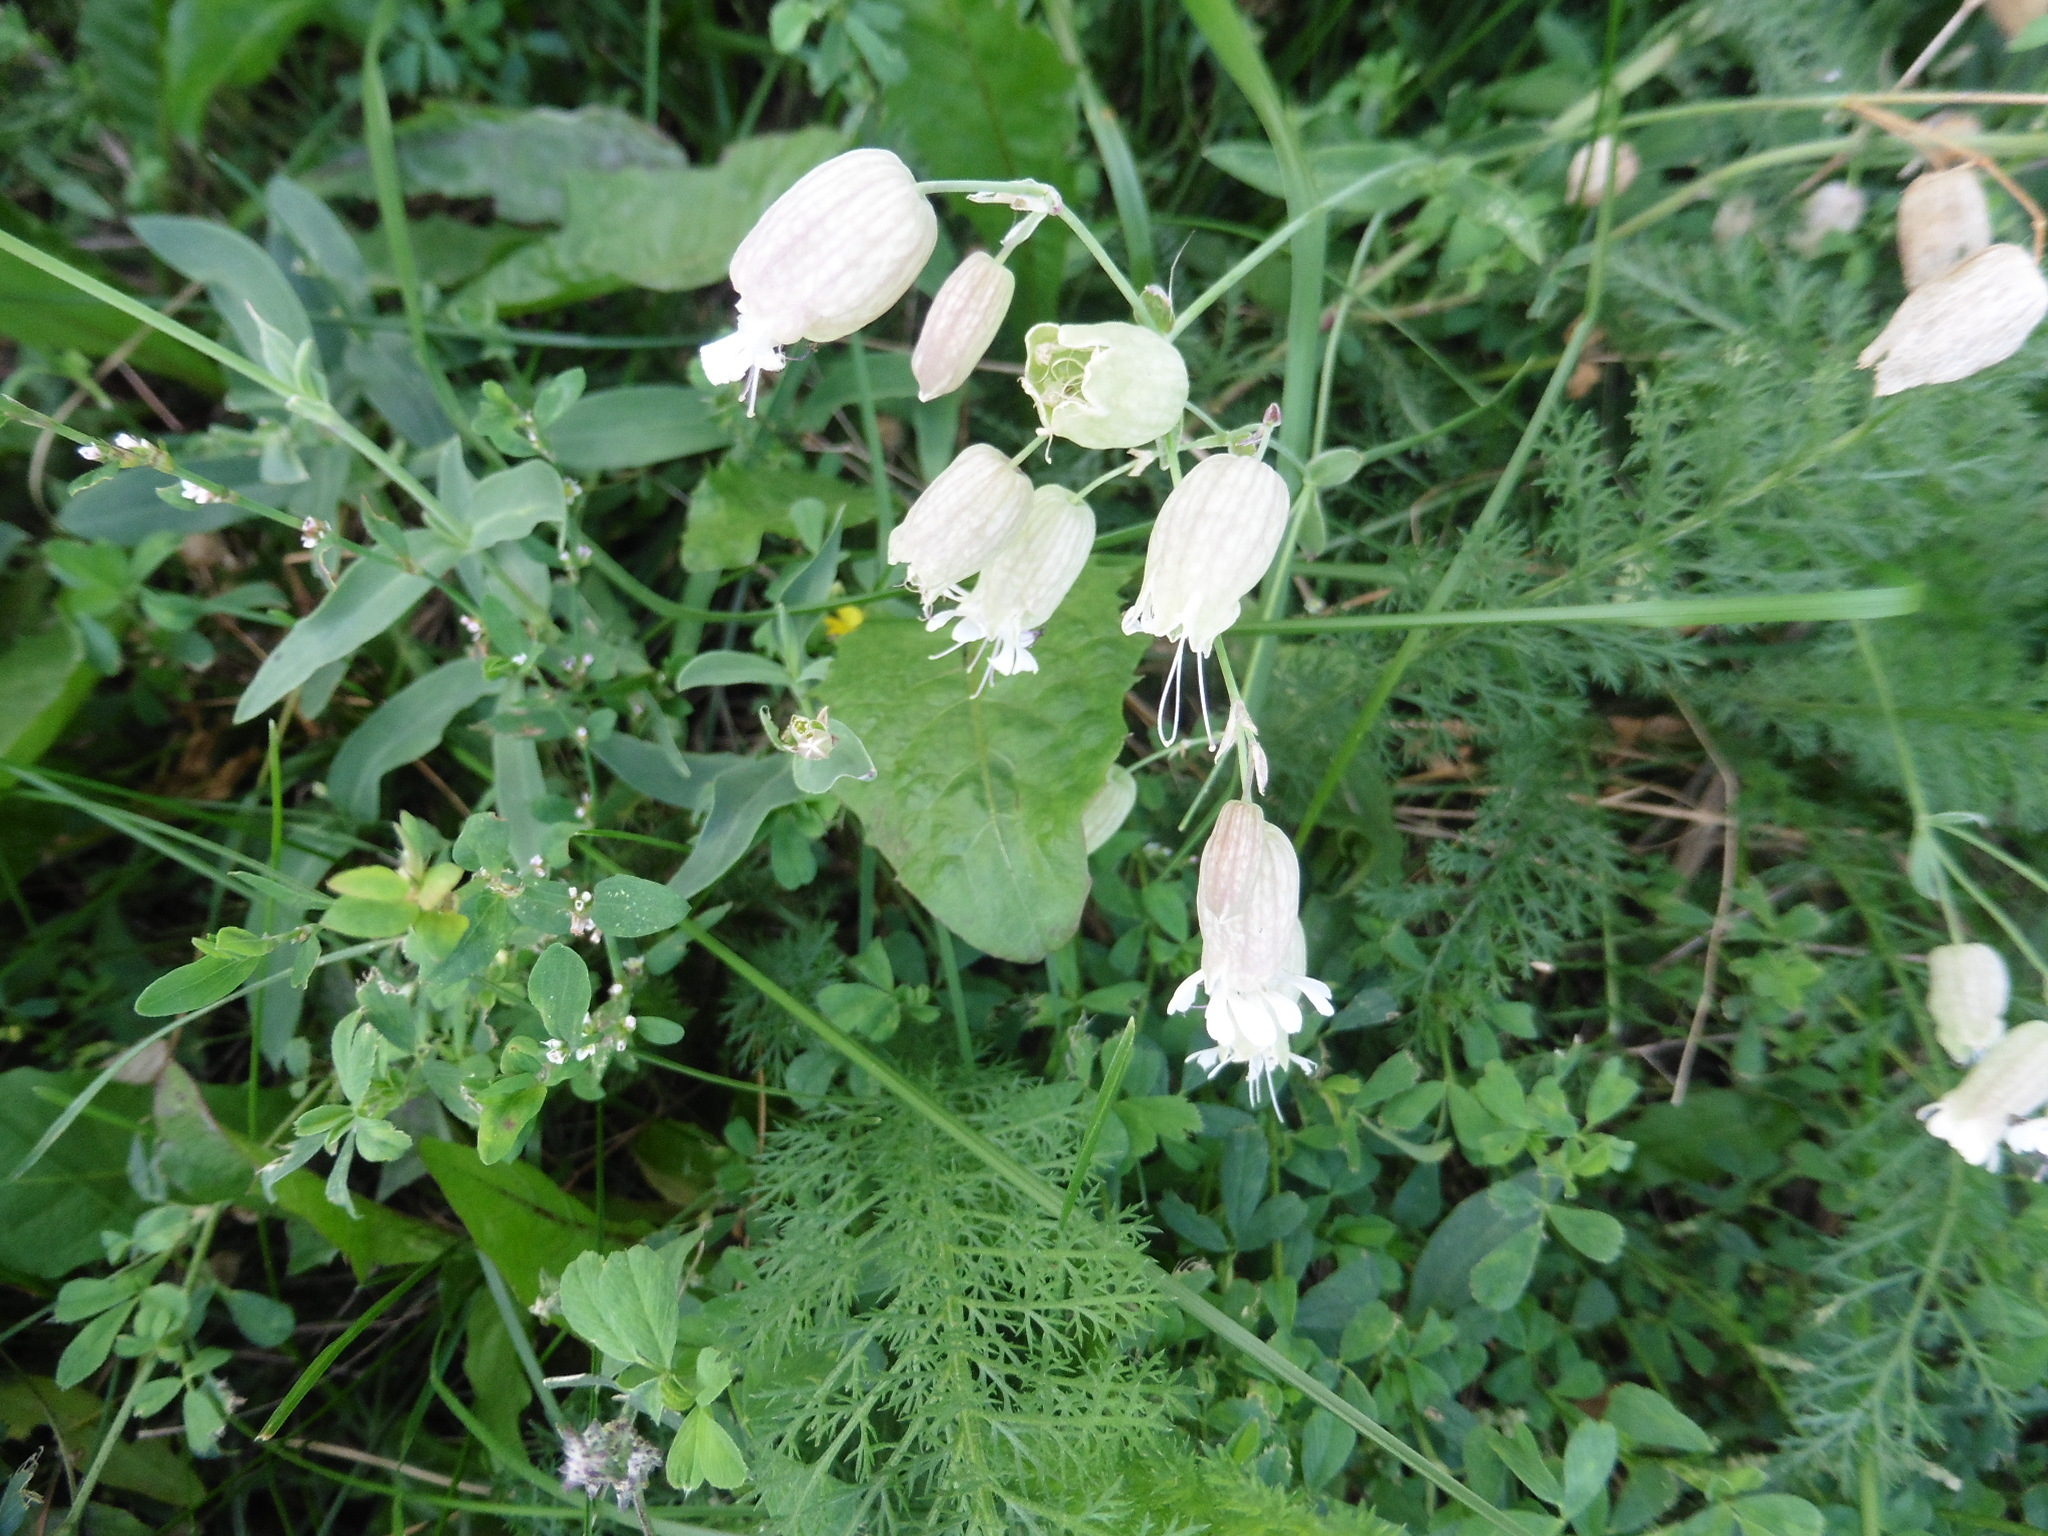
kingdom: Plantae
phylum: Tracheophyta
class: Magnoliopsida
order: Caryophyllales
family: Caryophyllaceae
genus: Silene
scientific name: Silene vulgaris
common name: Bladder campion
